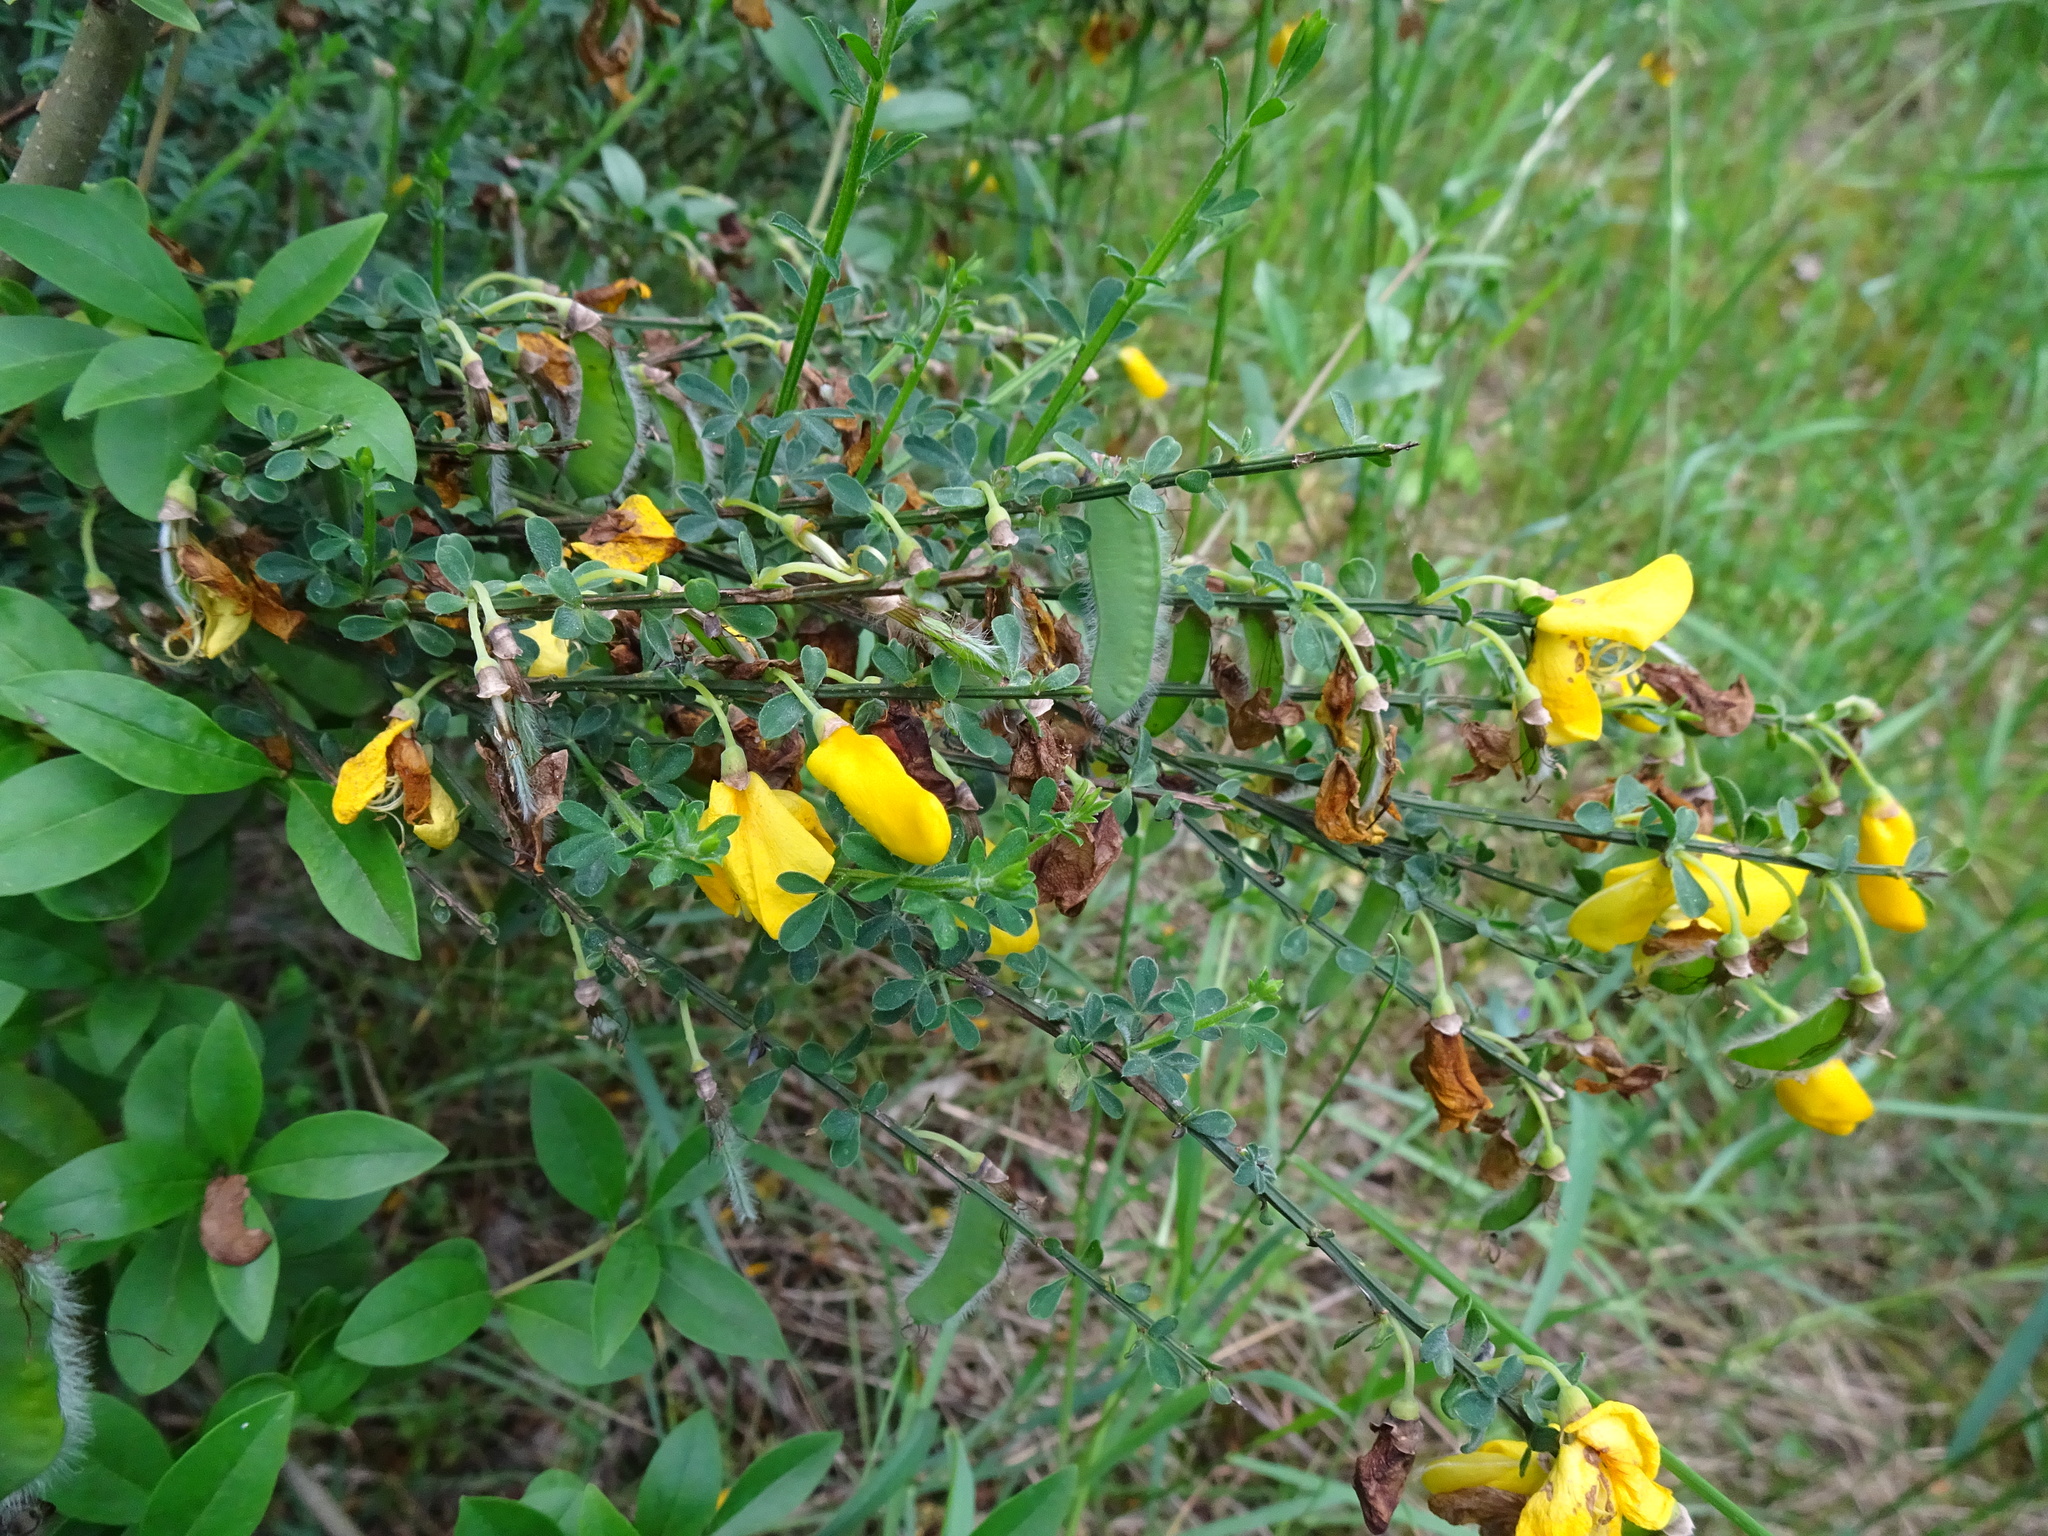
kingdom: Plantae
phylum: Tracheophyta
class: Magnoliopsida
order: Fabales
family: Fabaceae
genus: Cytisus
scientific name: Cytisus scoparius
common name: Scotch broom
